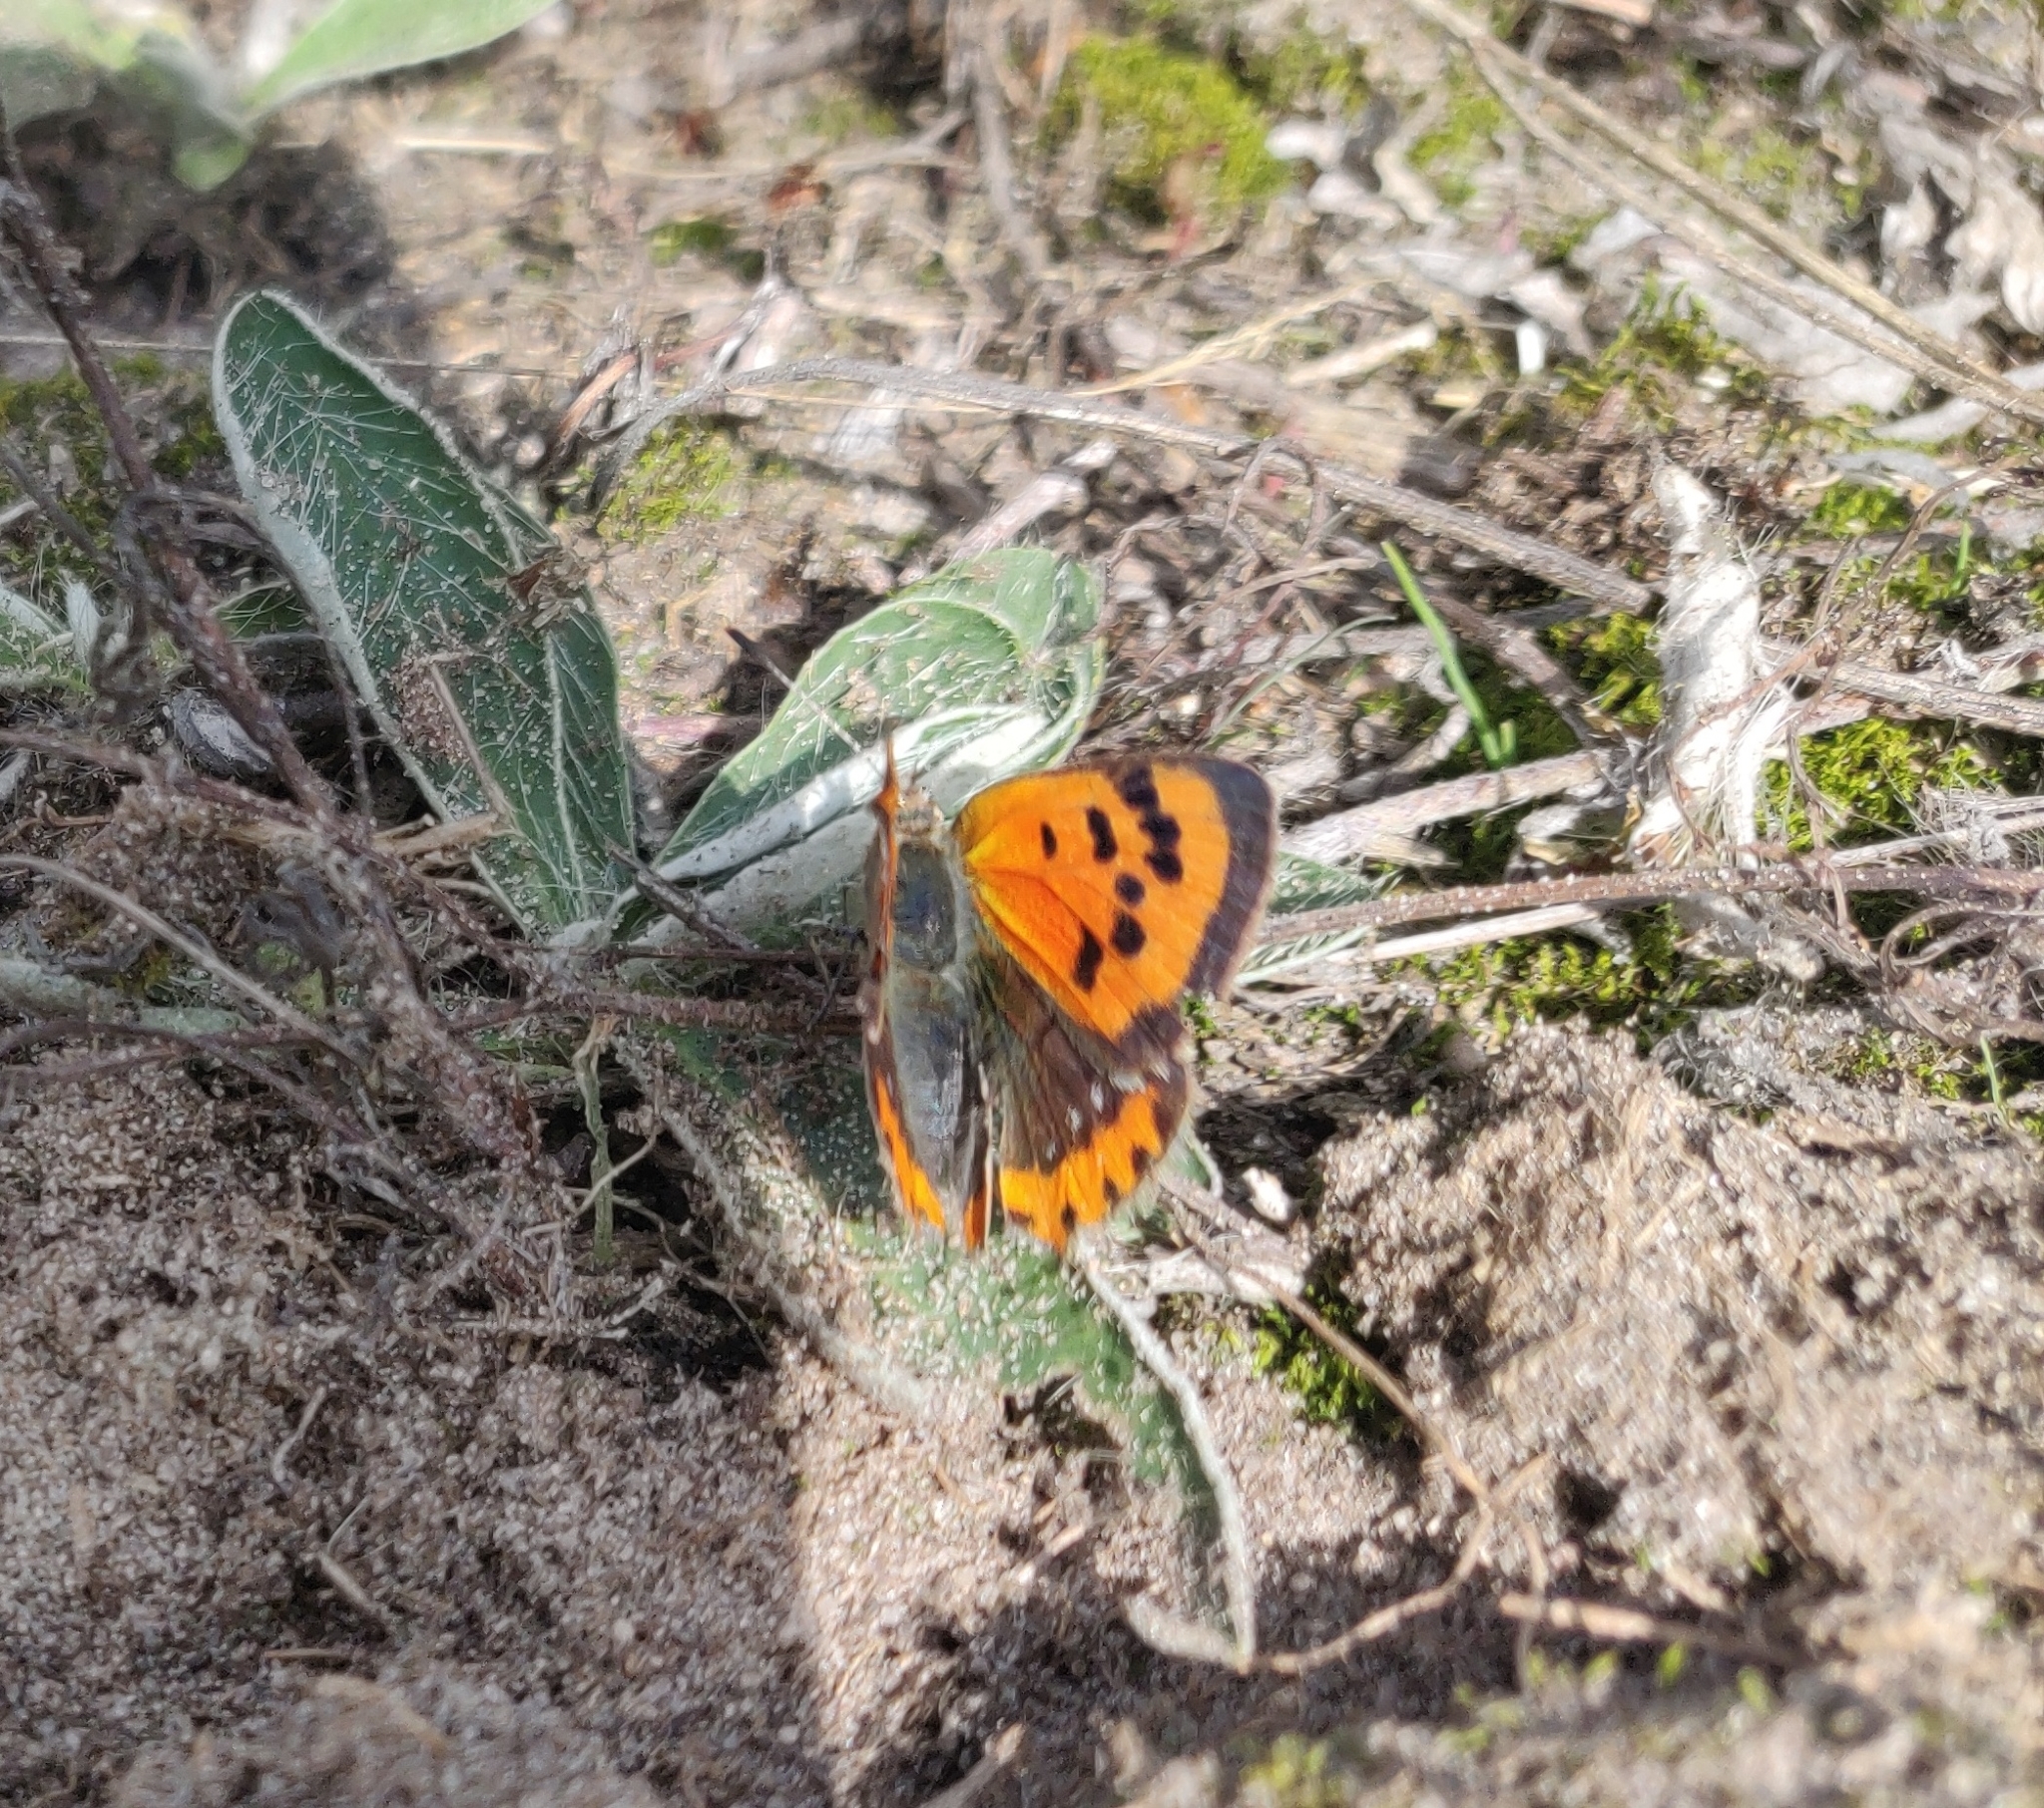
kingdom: Animalia
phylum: Arthropoda
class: Insecta
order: Lepidoptera
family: Lycaenidae
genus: Lycaena
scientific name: Lycaena phlaeas
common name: Small copper
